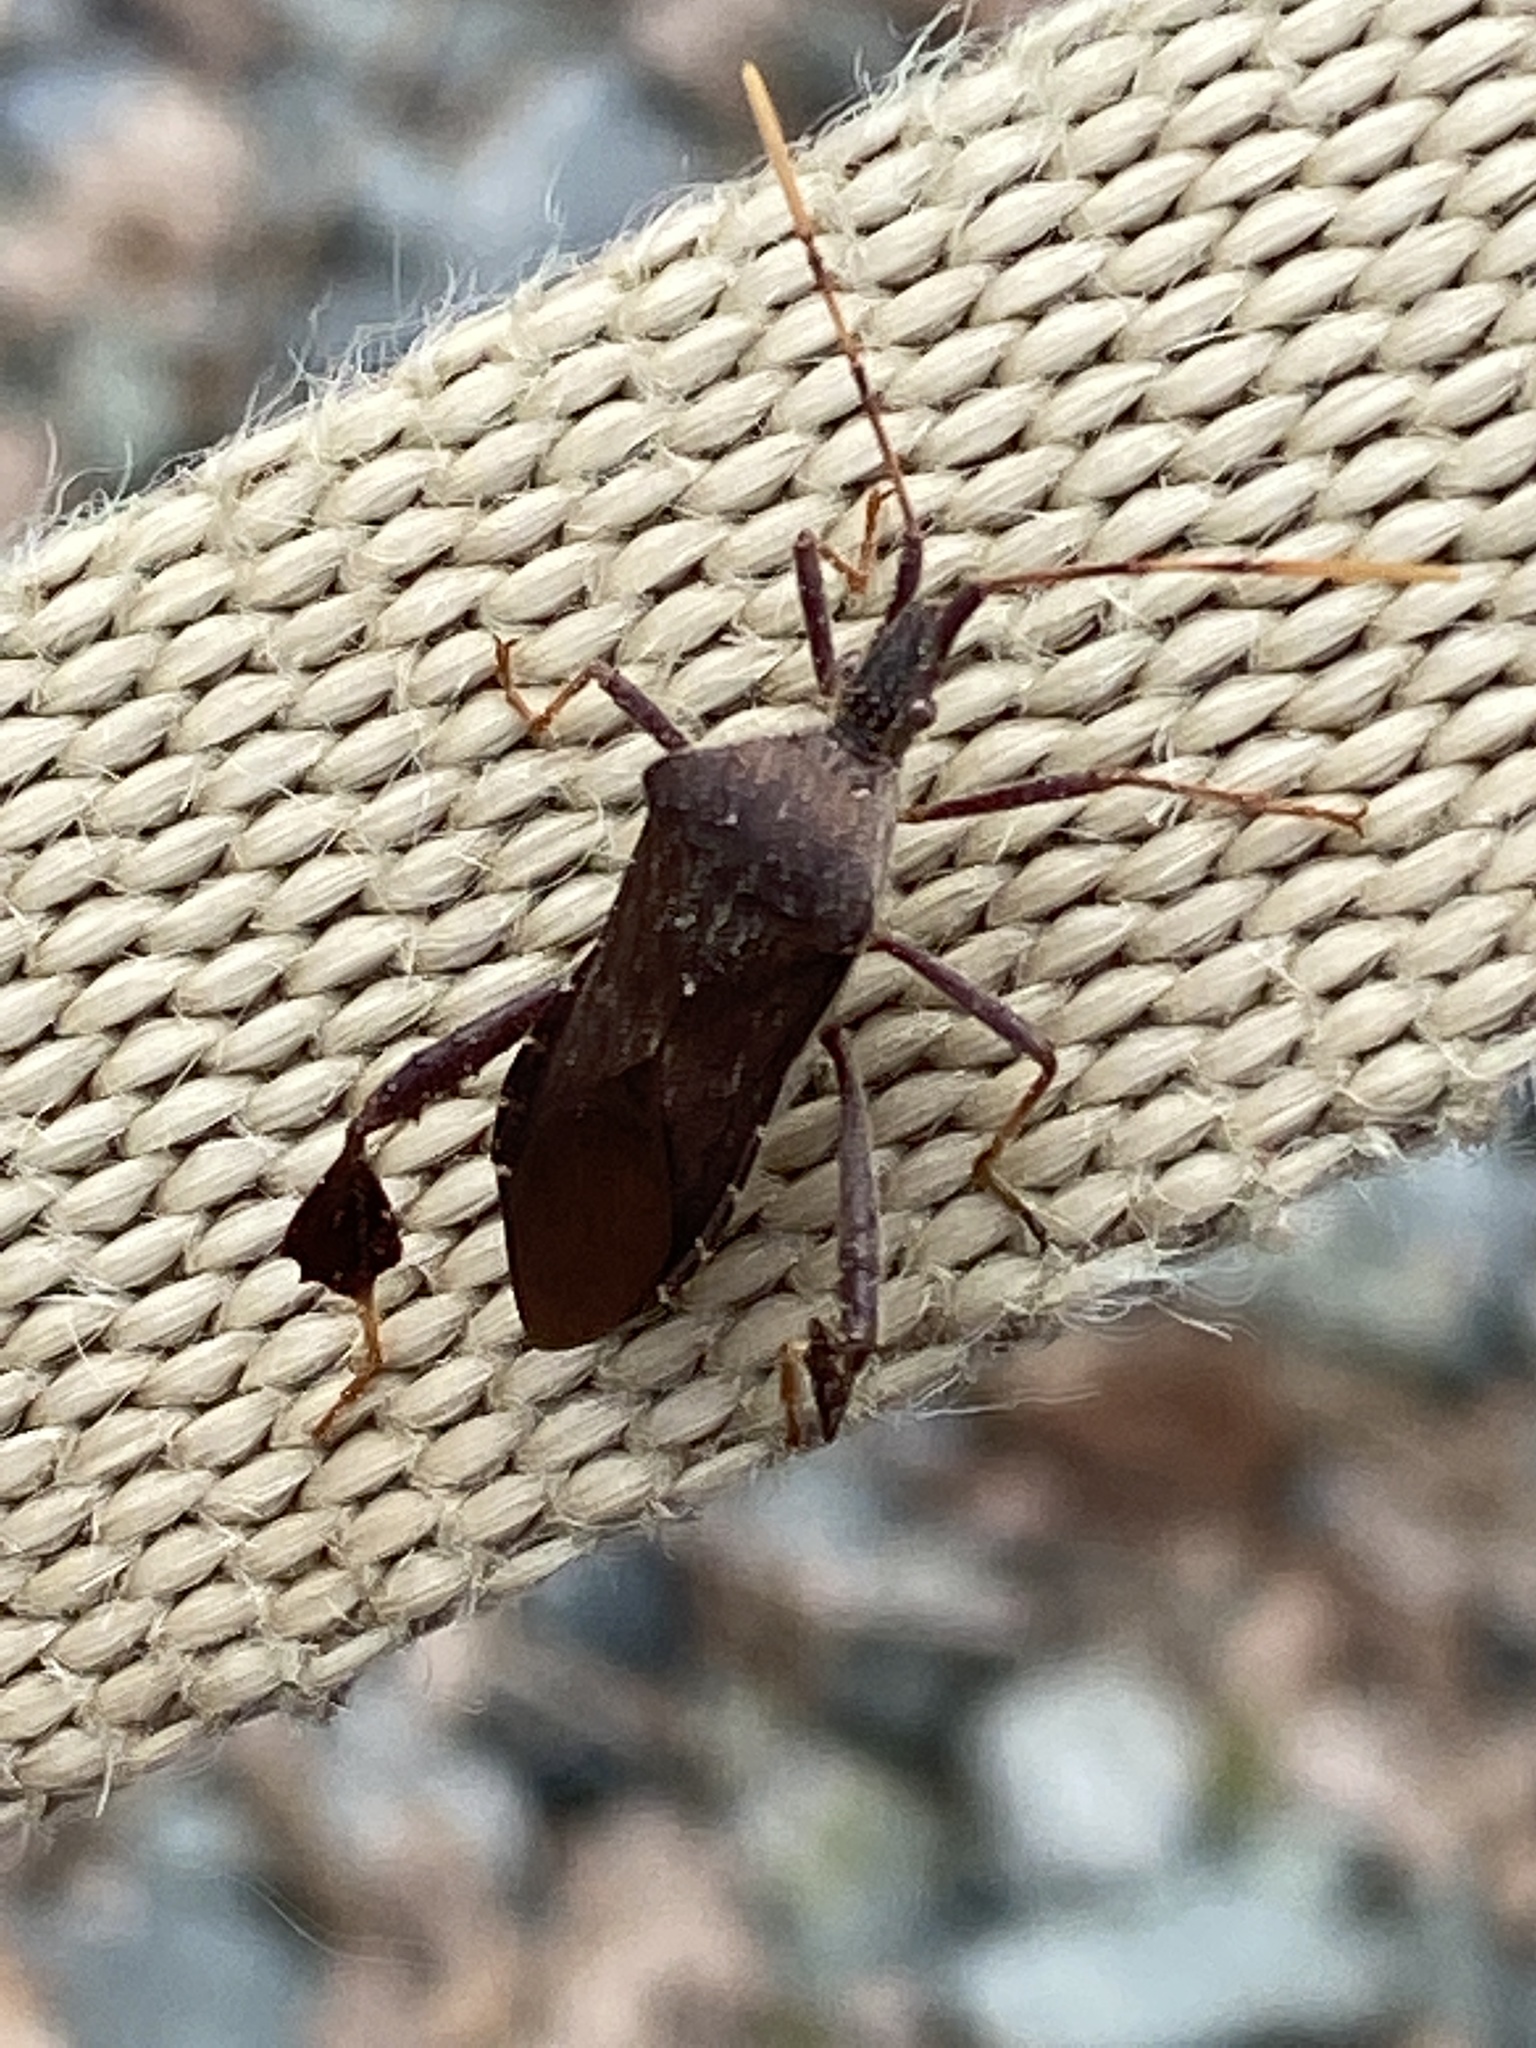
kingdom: Animalia
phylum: Arthropoda
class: Insecta
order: Hemiptera
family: Coreidae
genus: Leptoglossus
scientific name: Leptoglossus oppositus
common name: Northern leaf-footed bug
